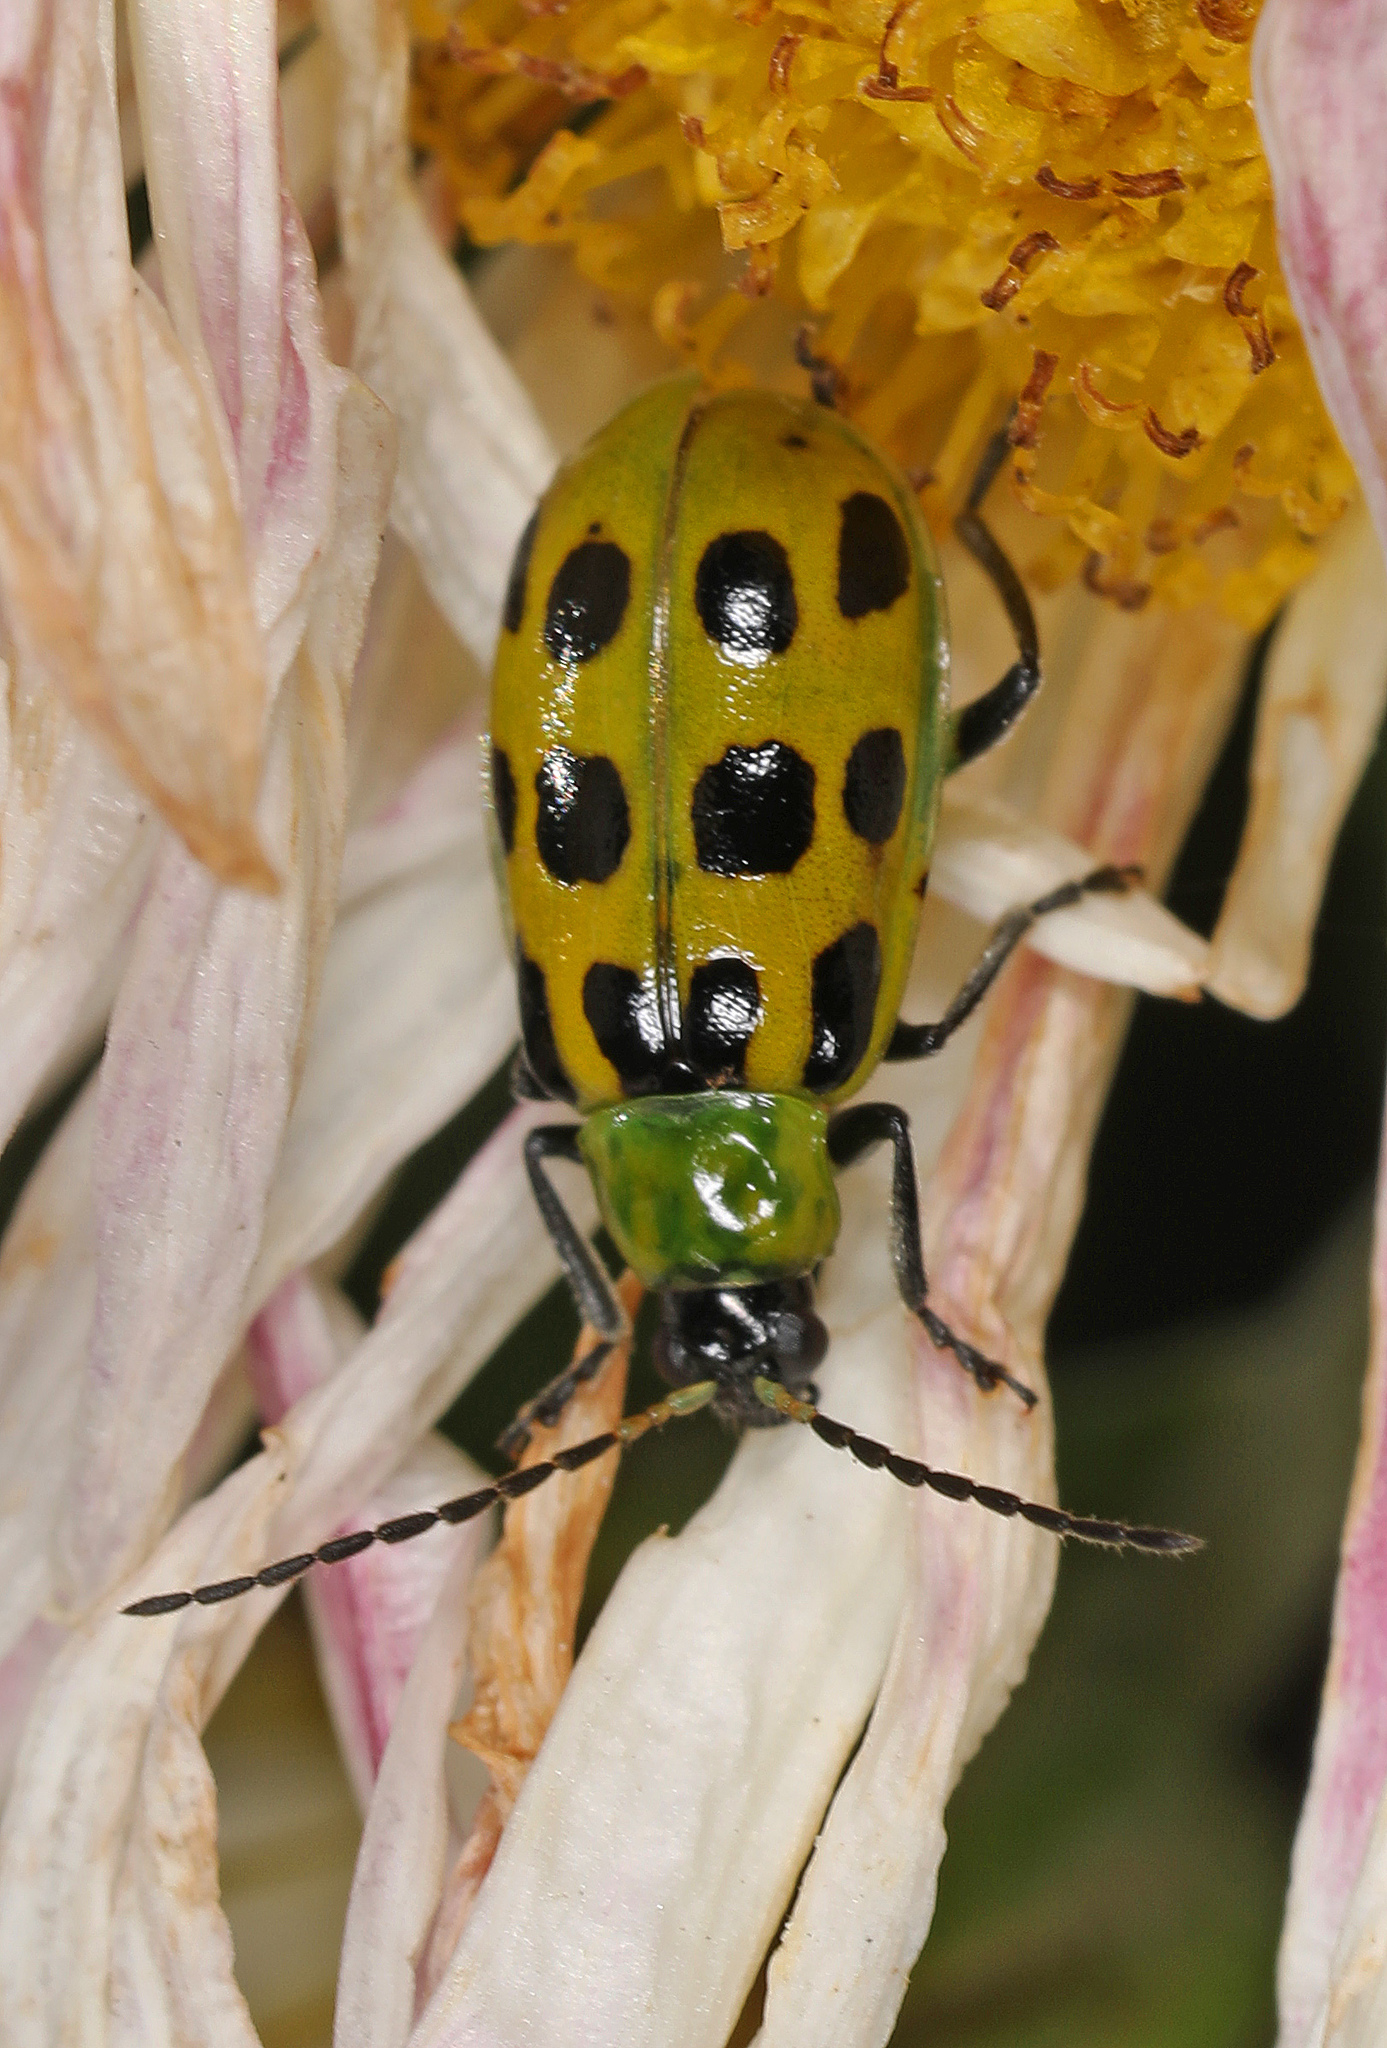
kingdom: Animalia
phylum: Arthropoda
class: Insecta
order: Coleoptera
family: Chrysomelidae
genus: Diabrotica
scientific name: Diabrotica undecimpunctata
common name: Spotted cucumber beetle
